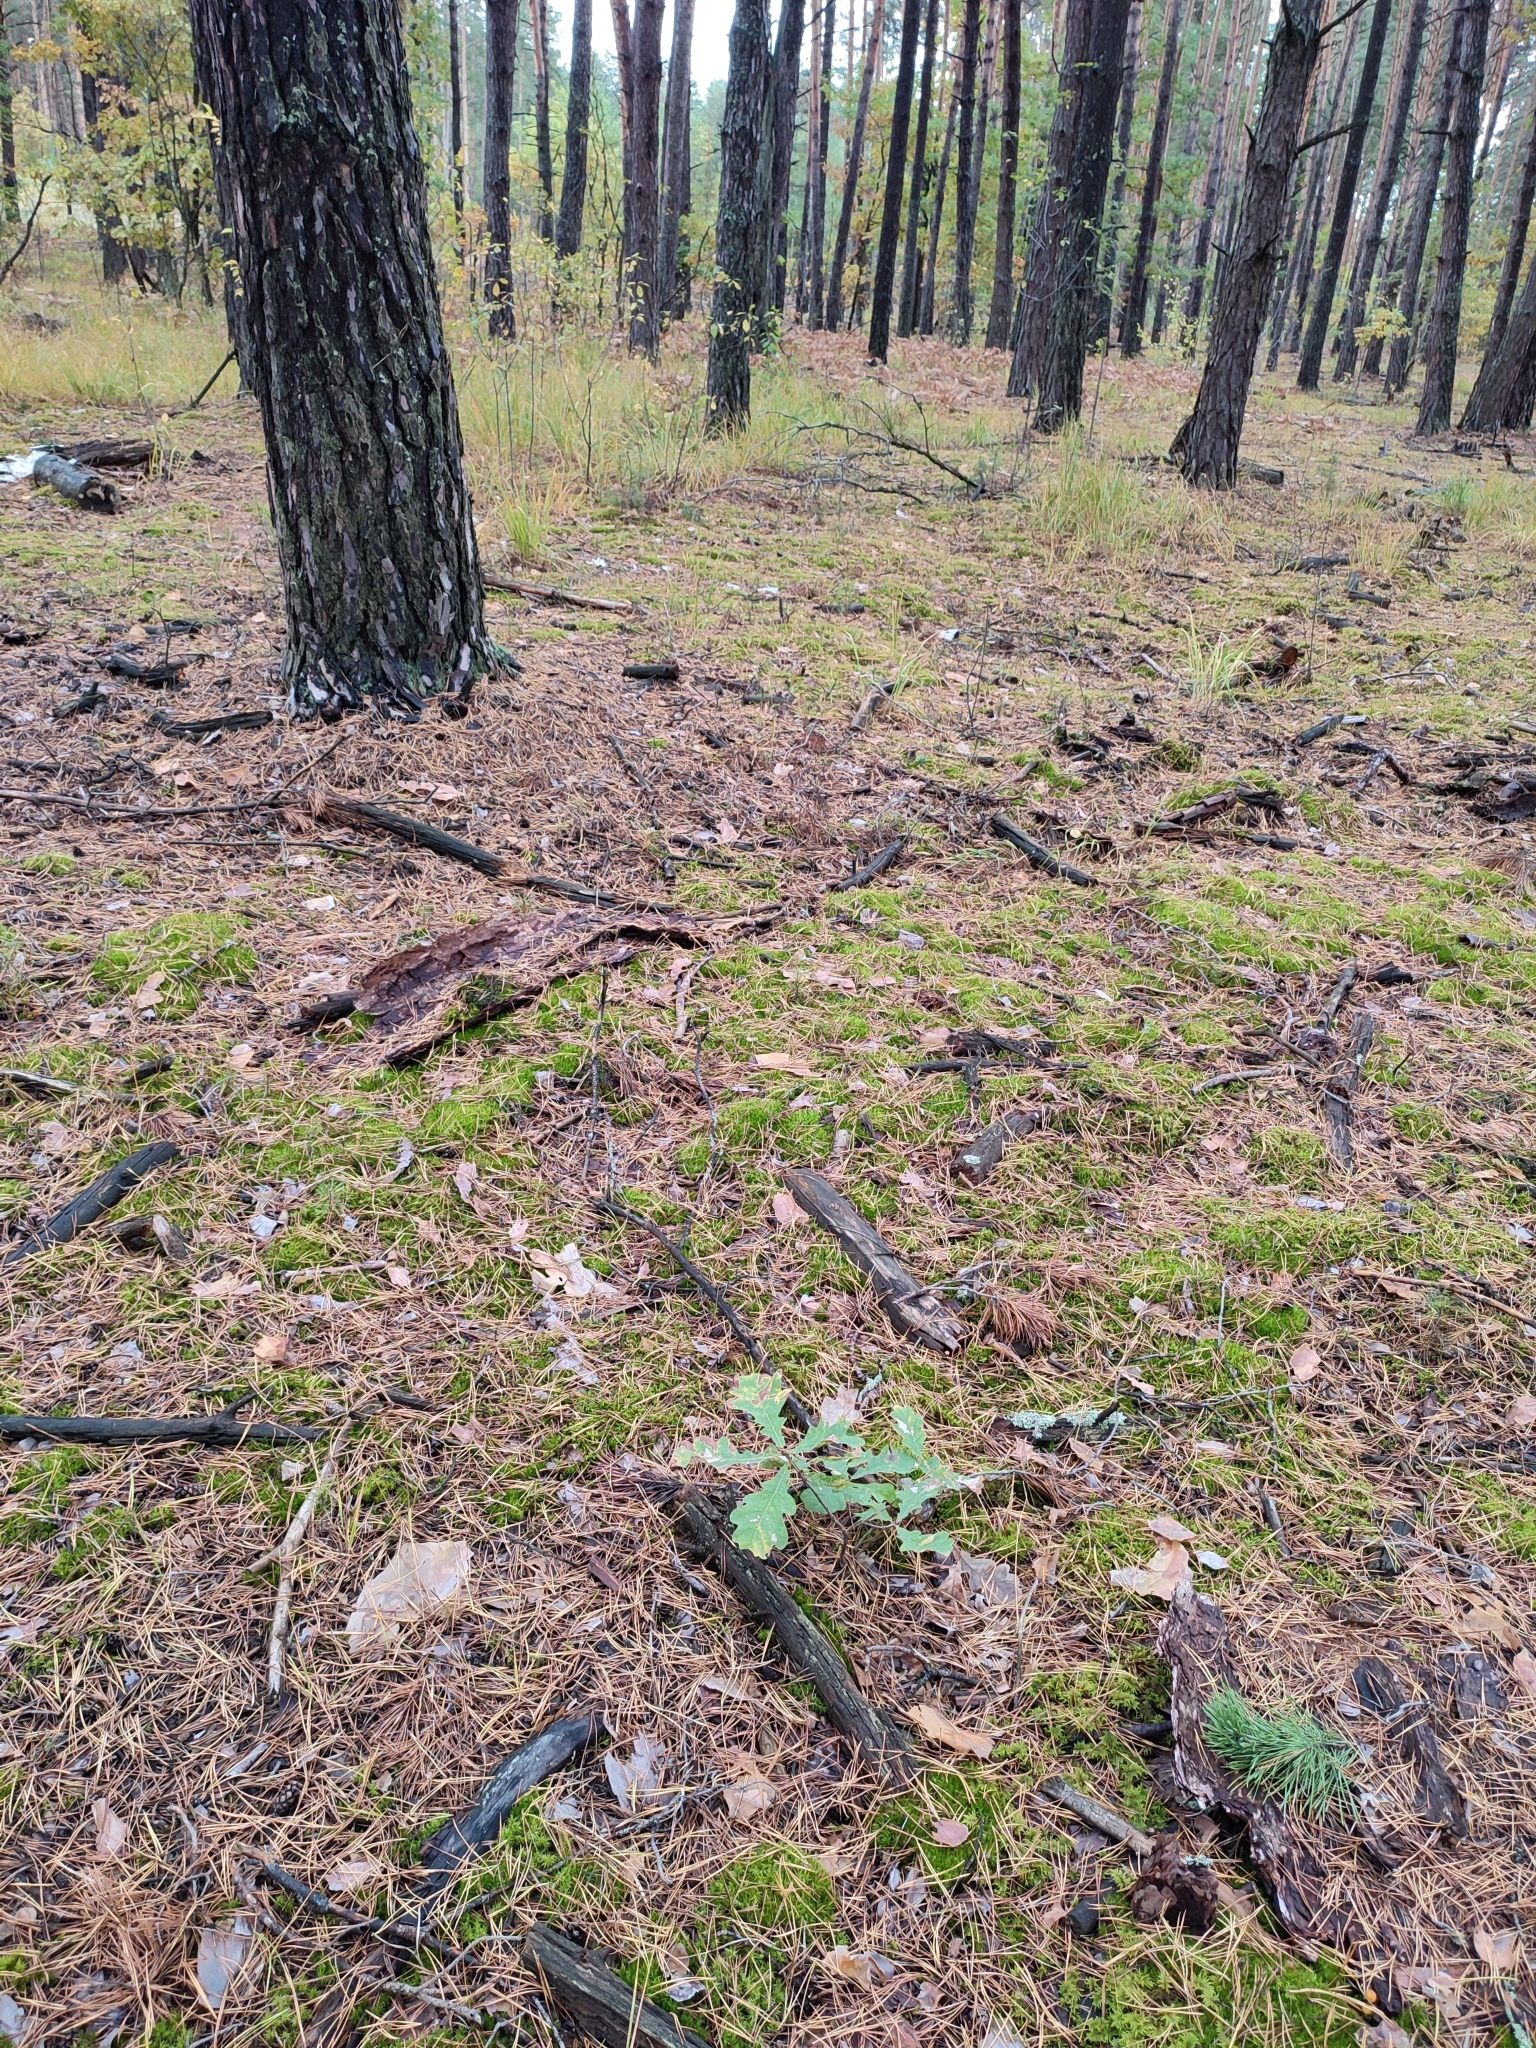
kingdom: Plantae
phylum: Tracheophyta
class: Magnoliopsida
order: Fagales
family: Fagaceae
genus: Quercus
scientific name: Quercus robur
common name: Pedunculate oak
